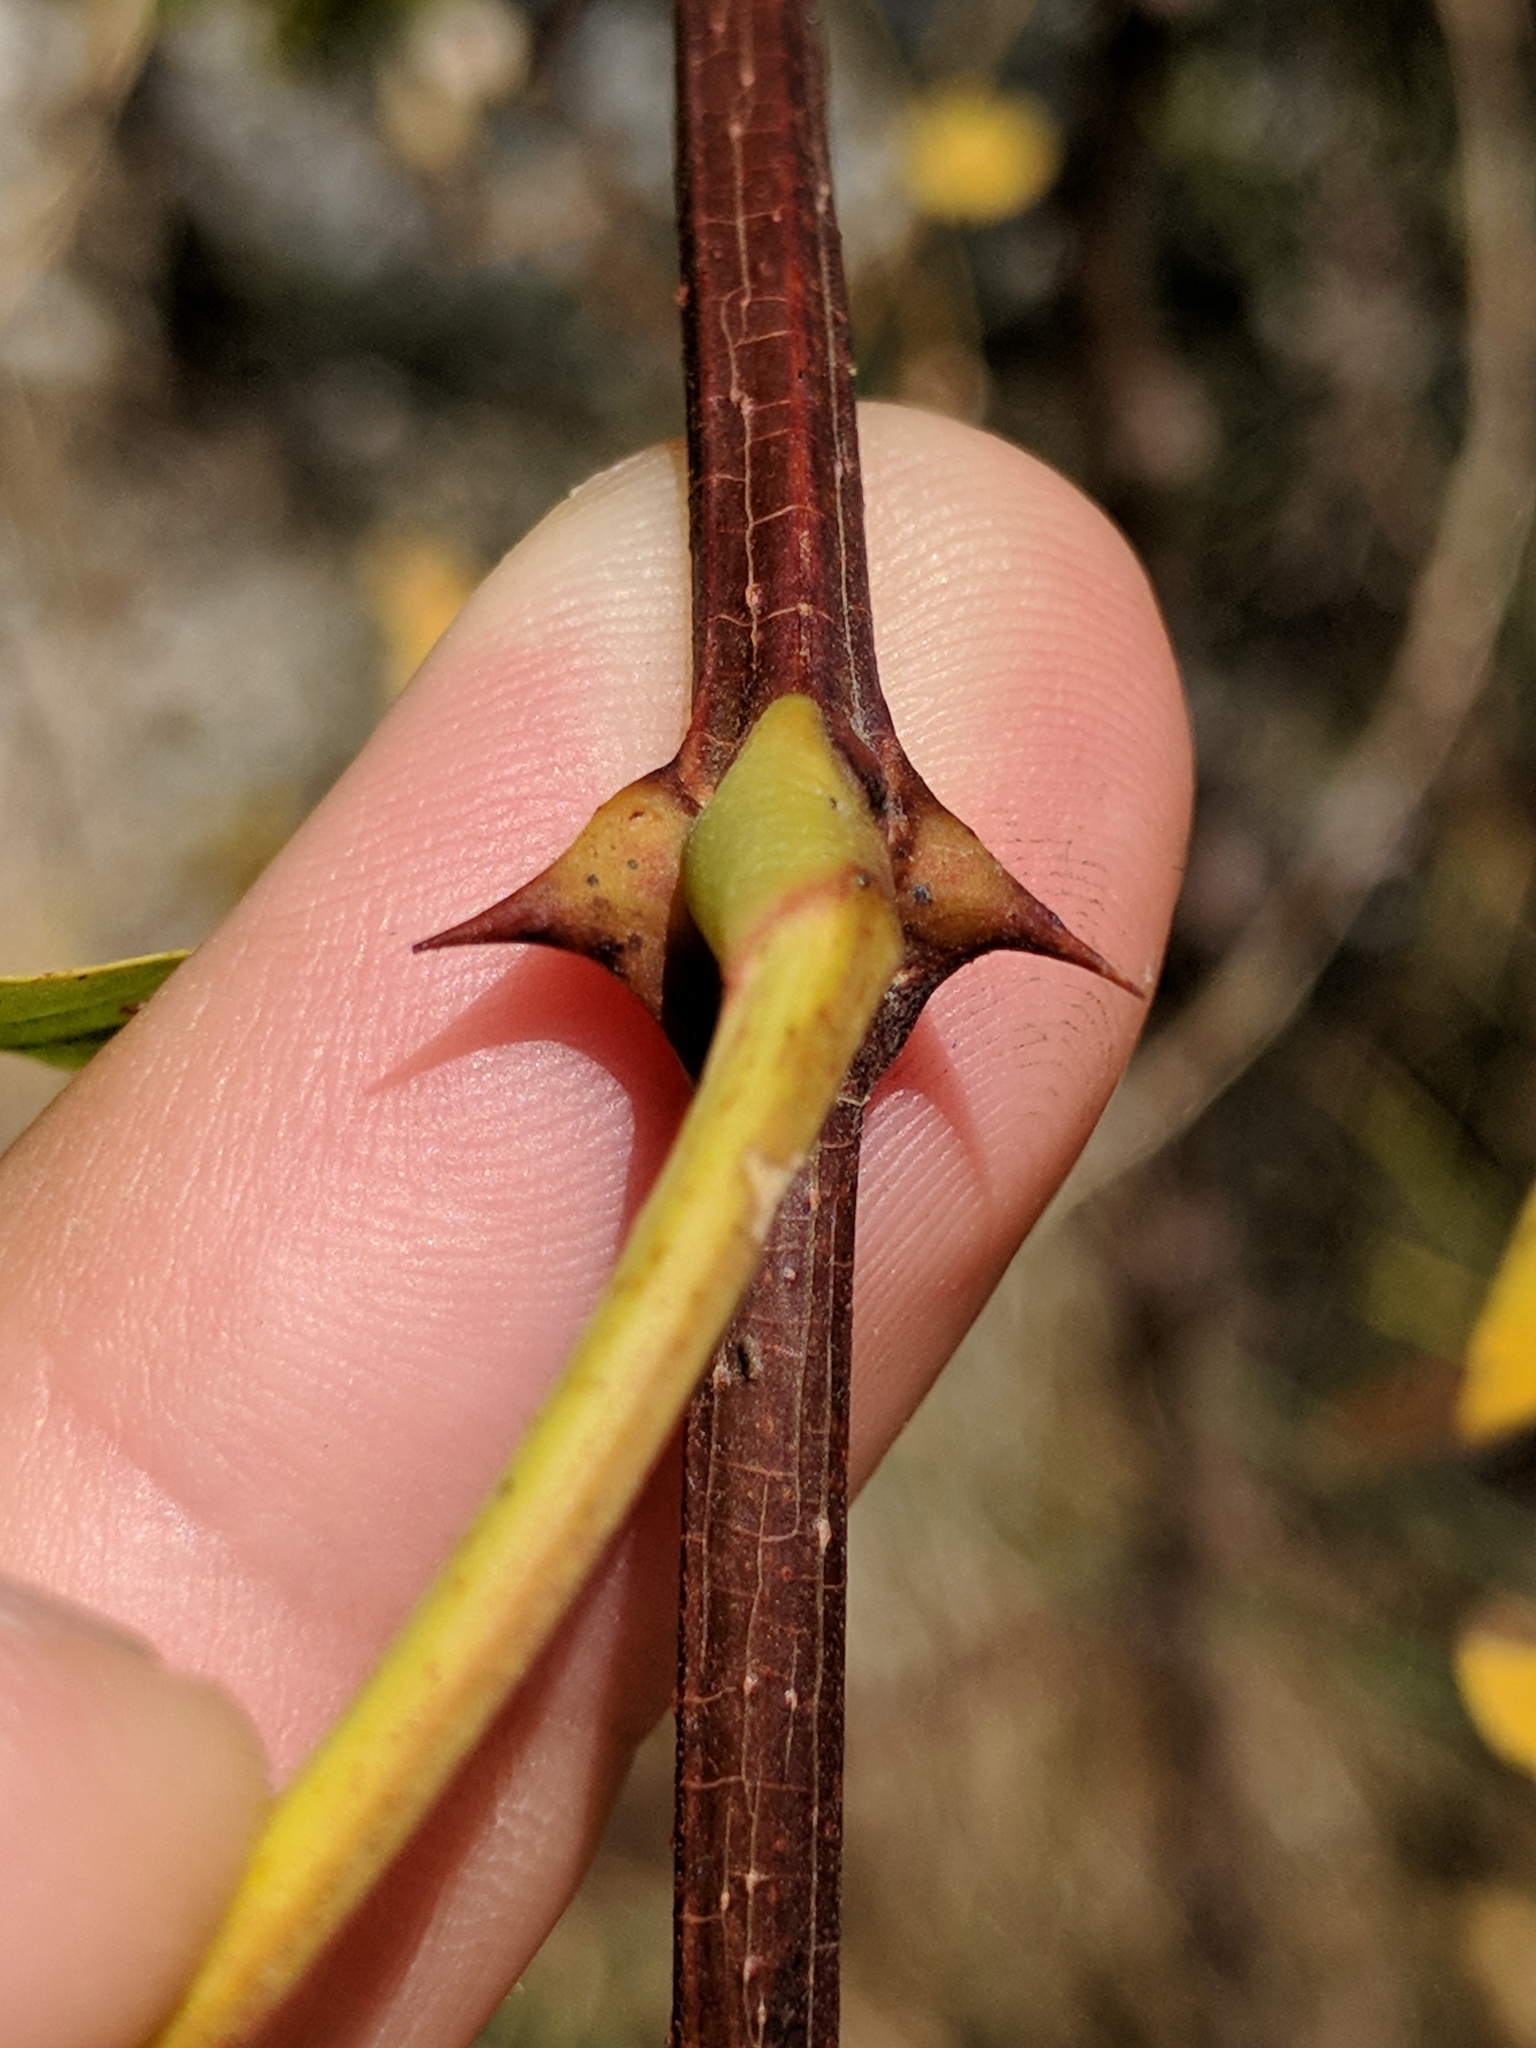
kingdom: Plantae
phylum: Tracheophyta
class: Magnoliopsida
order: Fabales
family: Fabaceae
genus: Robinia
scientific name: Robinia pseudoacacia
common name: Black locust
